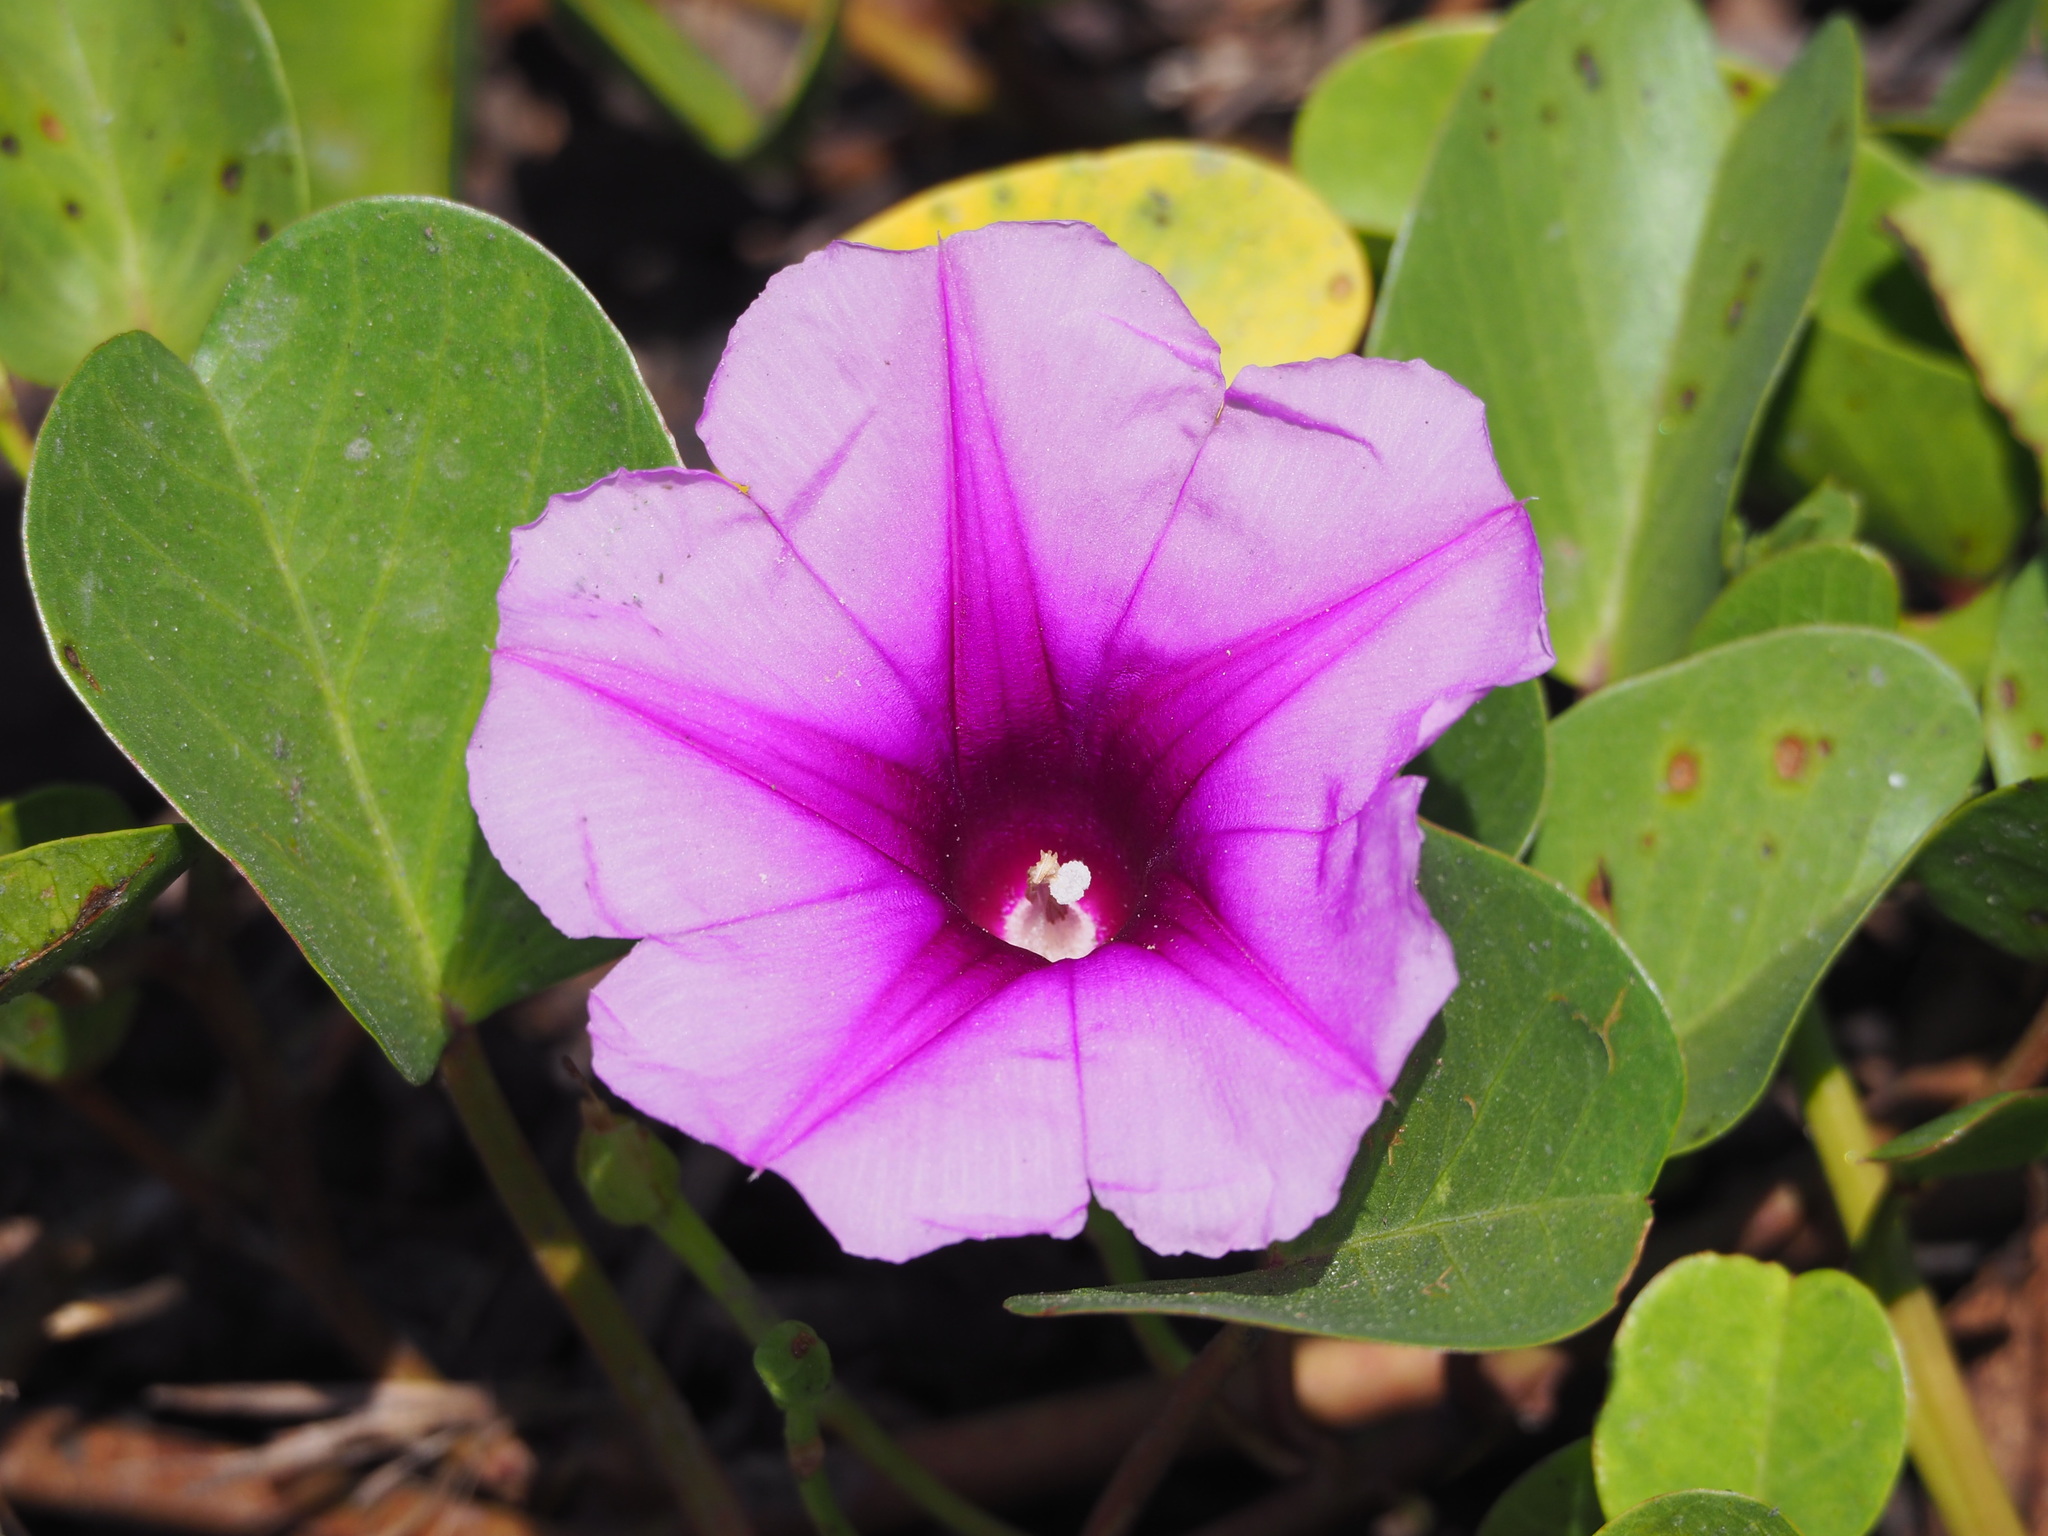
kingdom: Plantae
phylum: Tracheophyta
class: Magnoliopsida
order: Solanales
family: Convolvulaceae
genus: Ipomoea
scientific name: Ipomoea pes-caprae
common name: Beach morning glory
